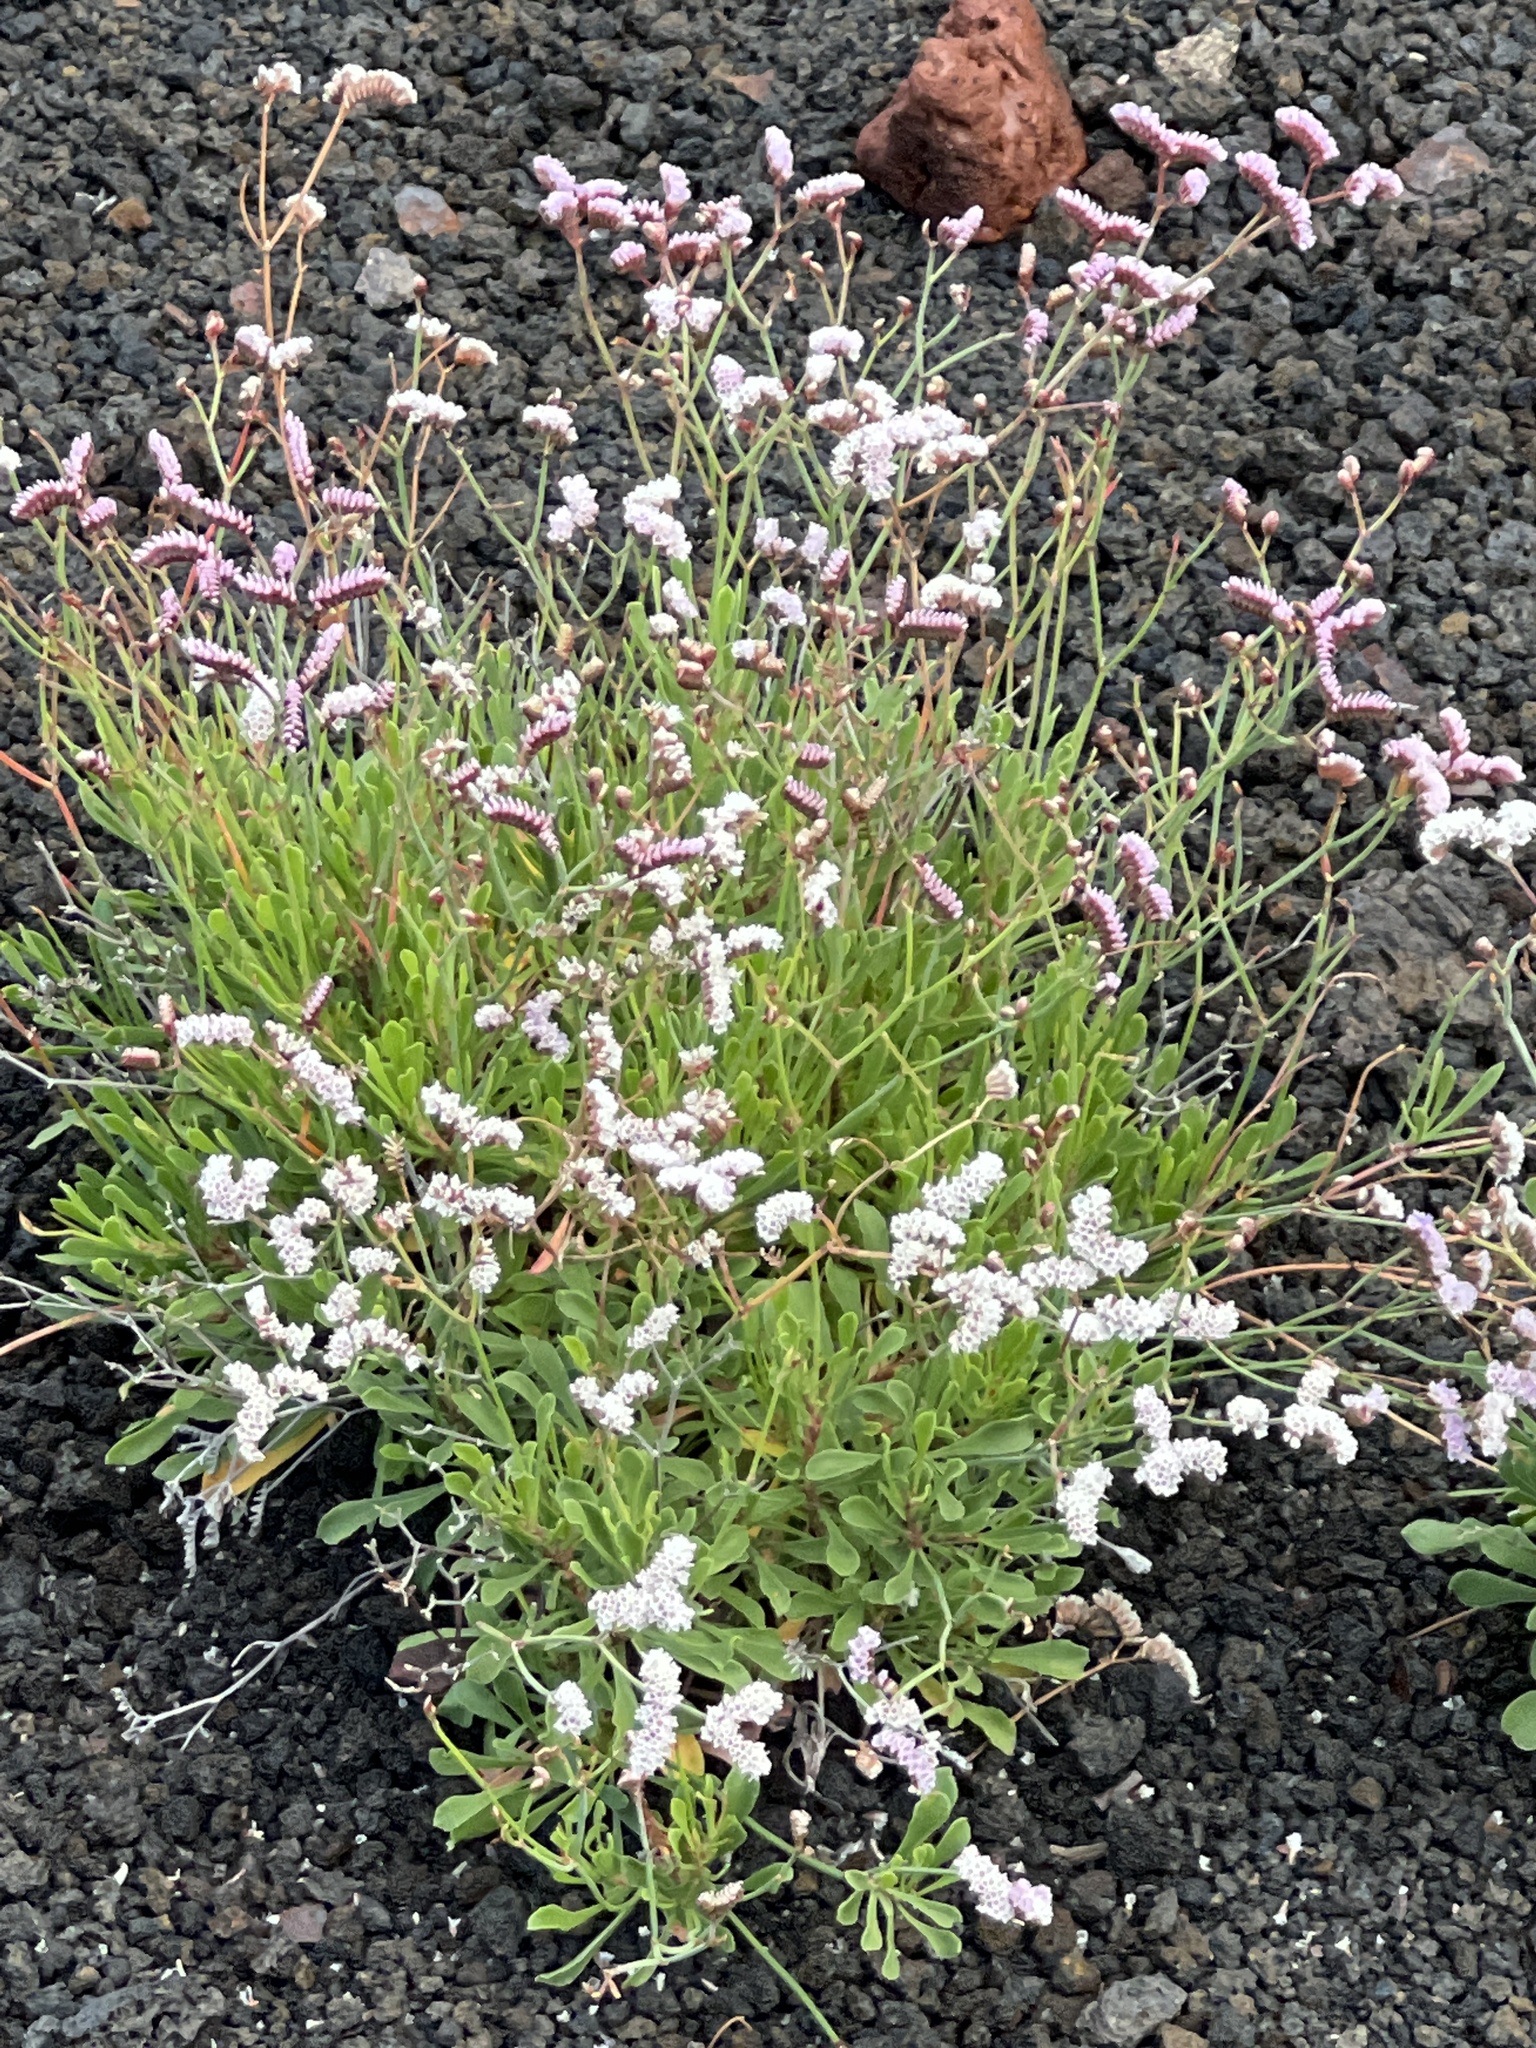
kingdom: Plantae
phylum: Tracheophyta
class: Magnoliopsida
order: Caryophyllales
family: Plumbaginaceae
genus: Limonium
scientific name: Limonium pectinatum
